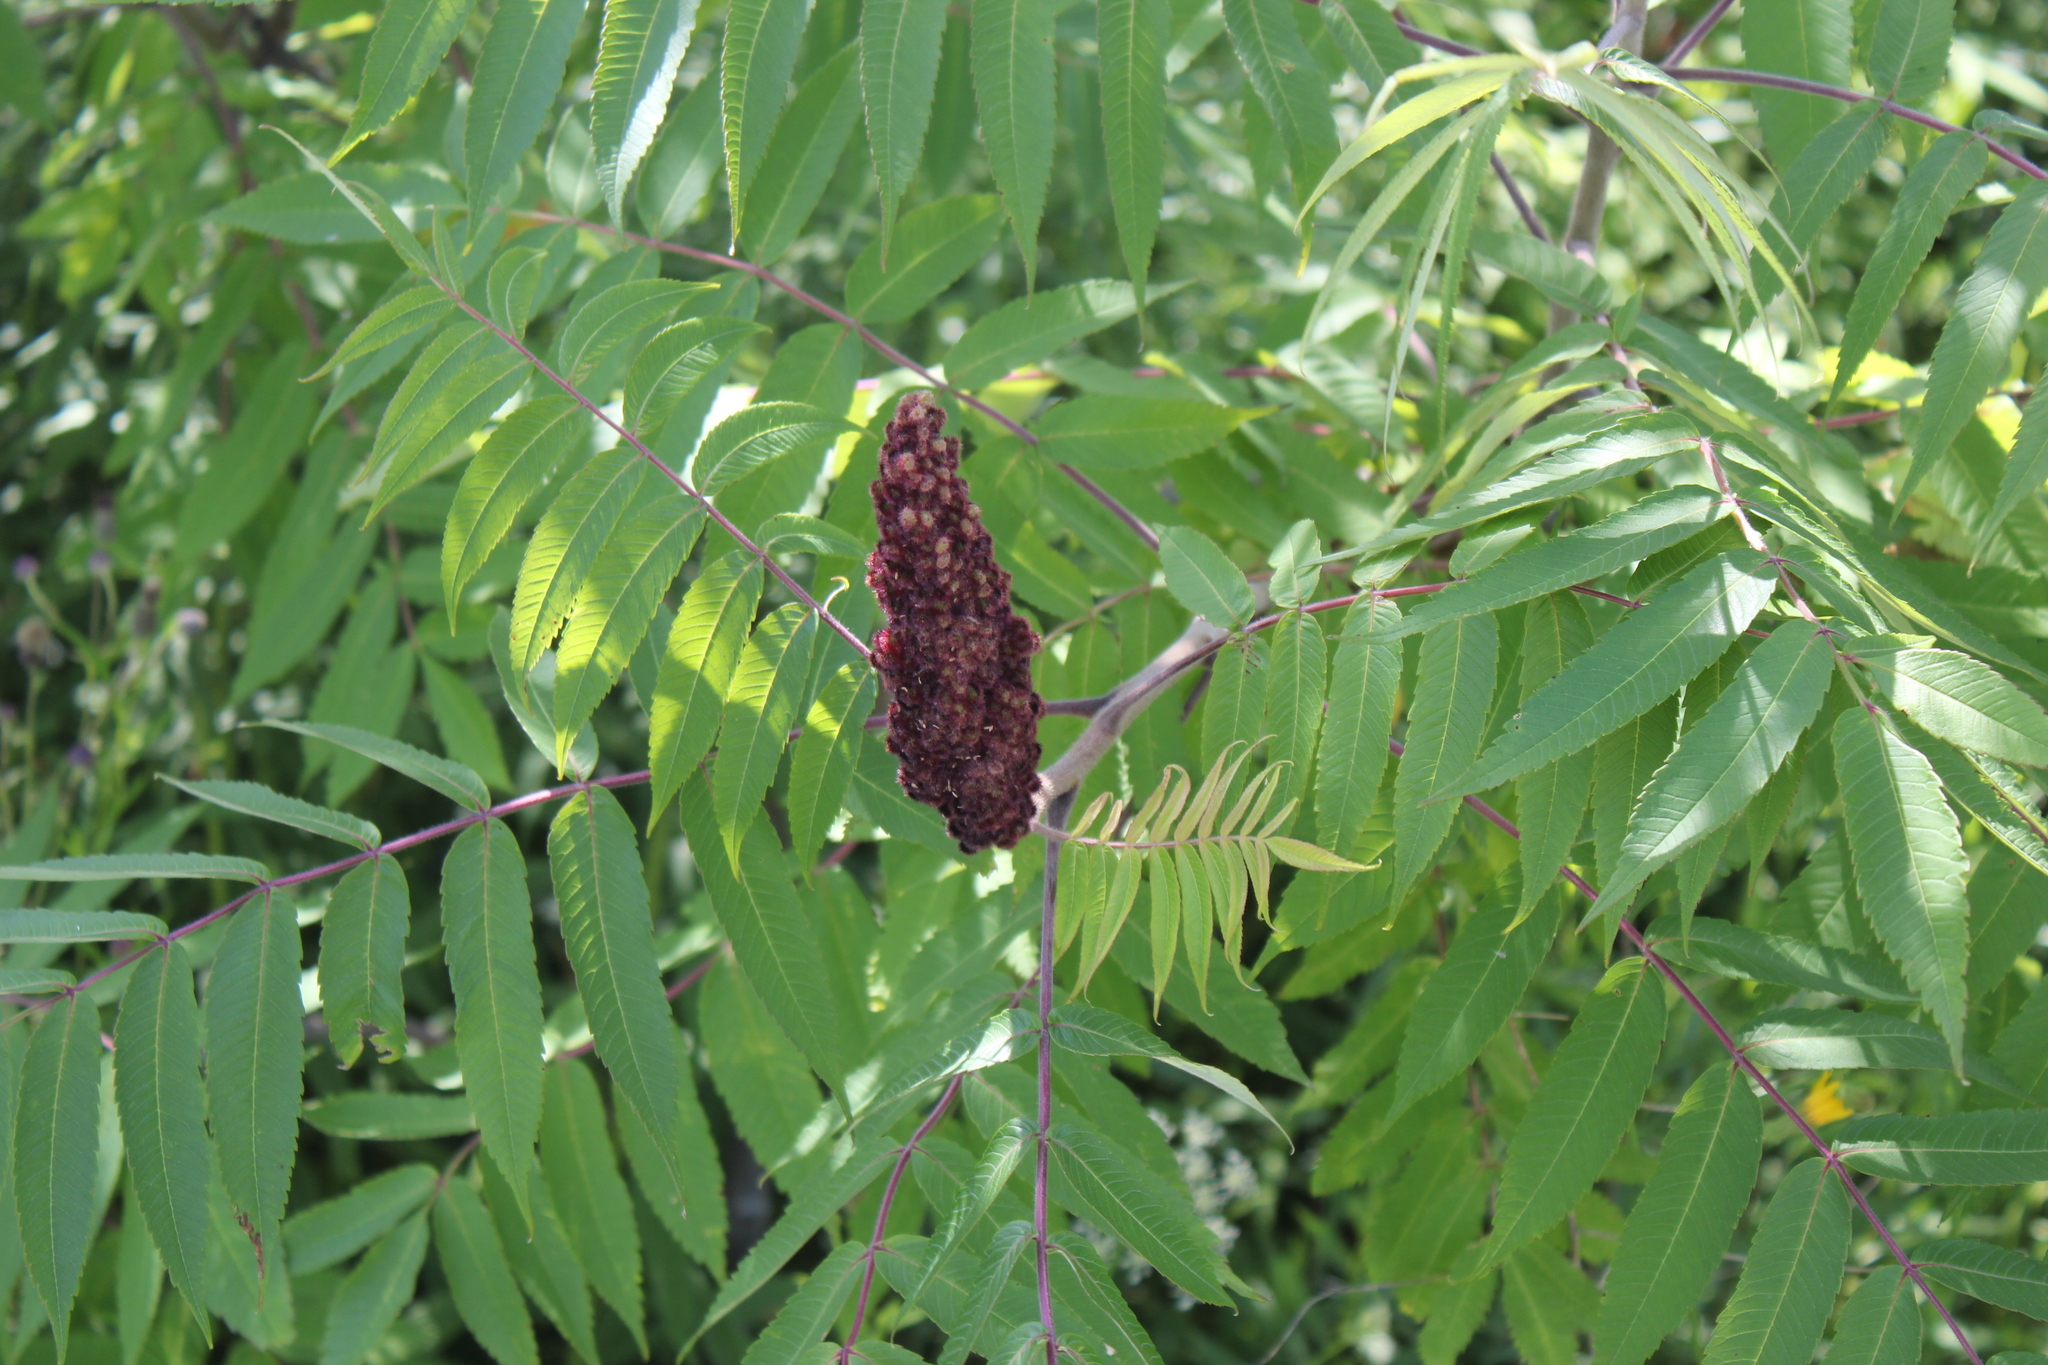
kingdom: Plantae
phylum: Tracheophyta
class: Magnoliopsida
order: Sapindales
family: Anacardiaceae
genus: Rhus
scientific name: Rhus typhina
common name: Staghorn sumac
